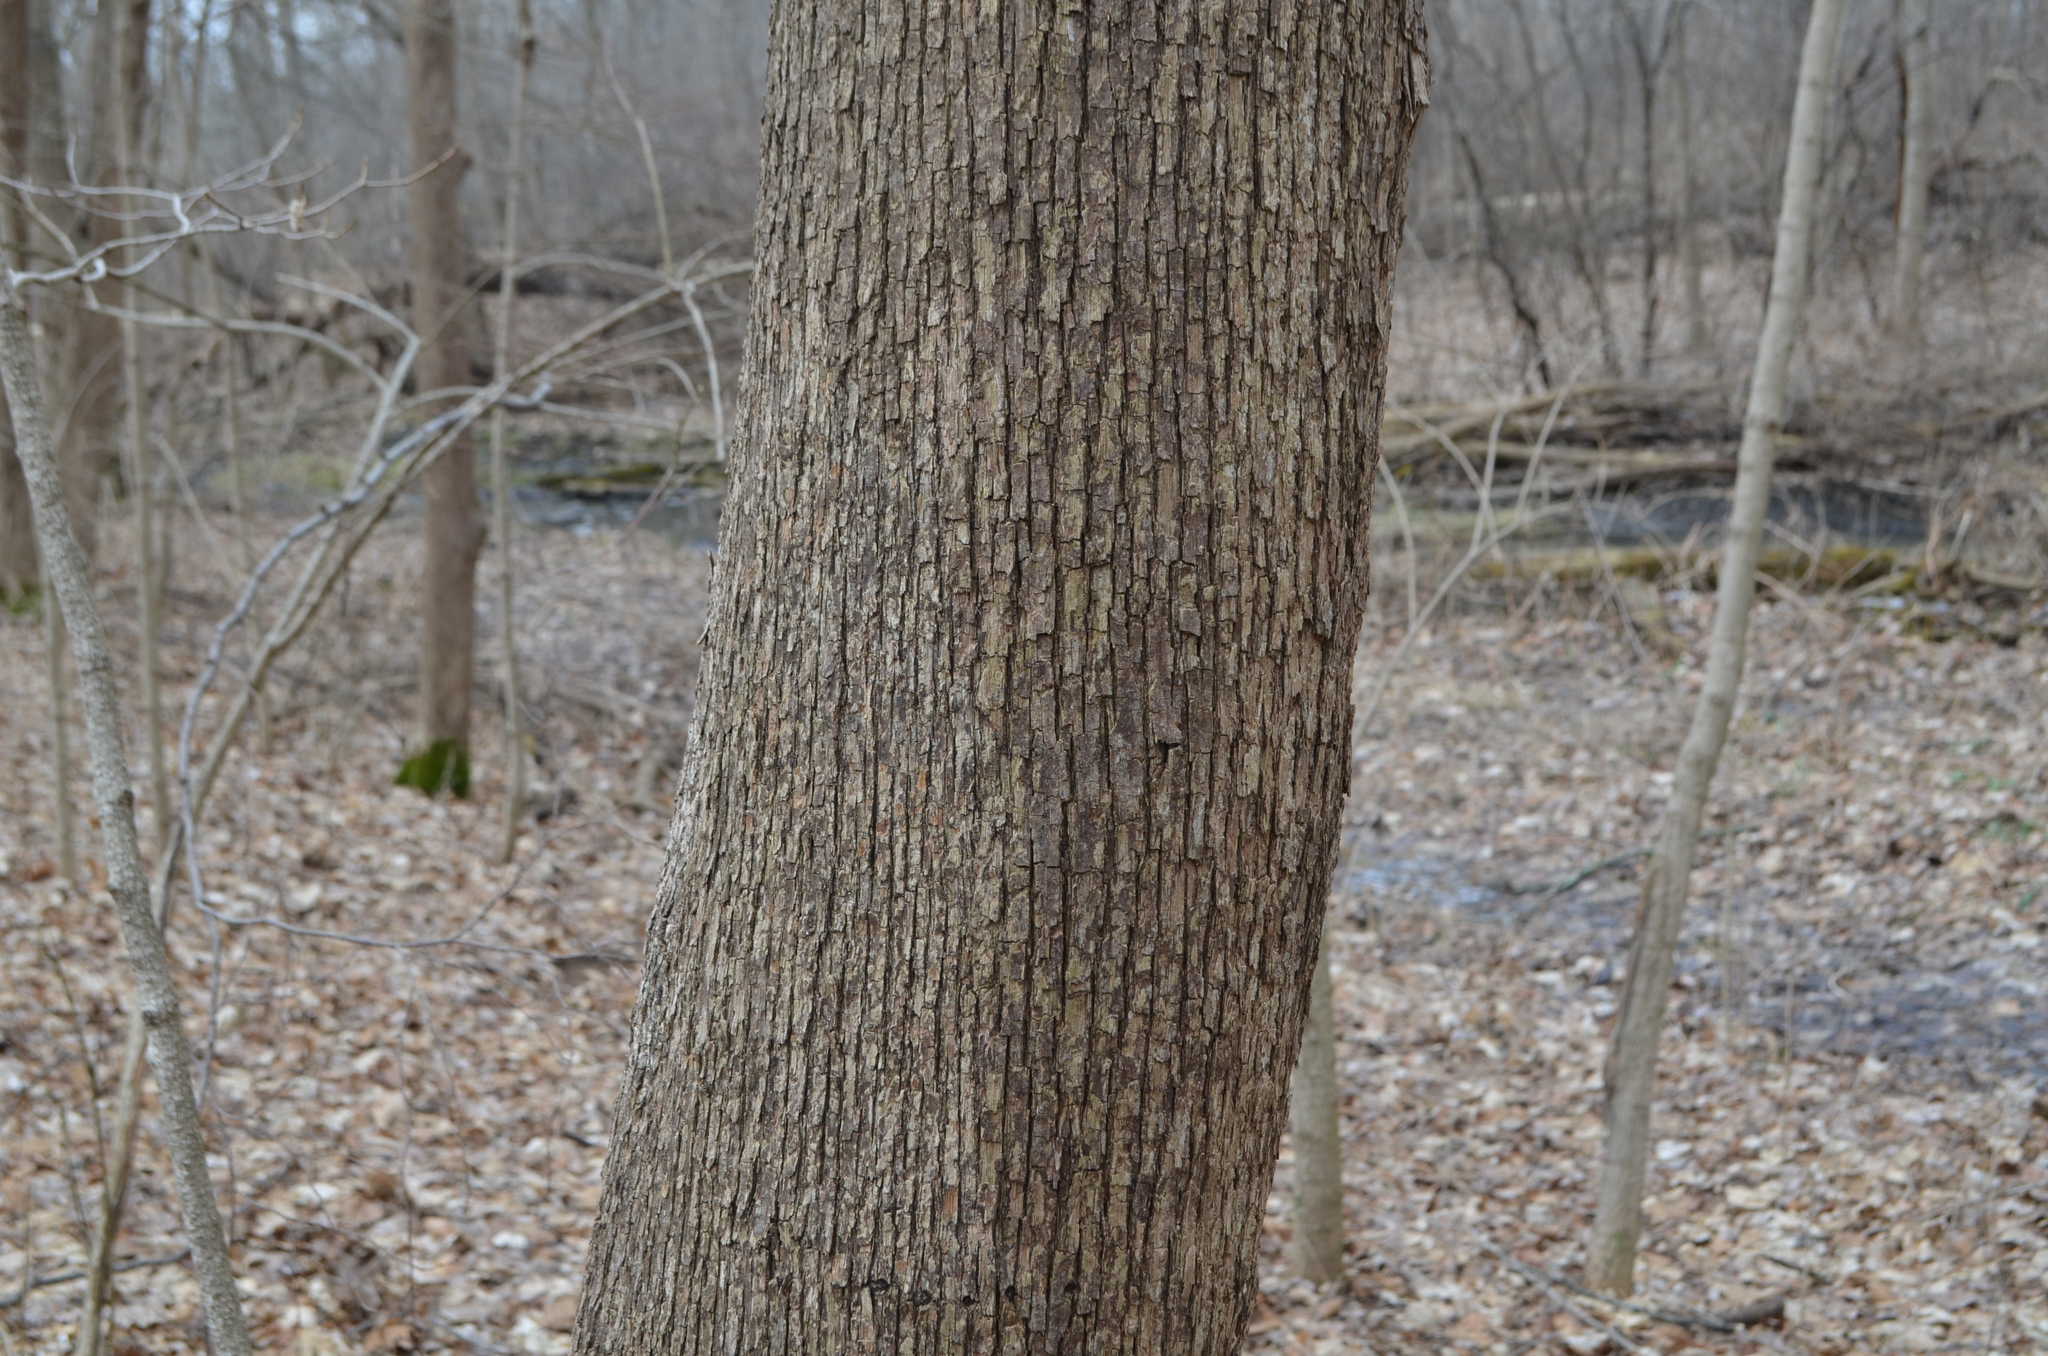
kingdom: Plantae
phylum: Tracheophyta
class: Magnoliopsida
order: Fagales
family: Betulaceae
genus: Ostrya
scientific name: Ostrya virginiana
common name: Ironwood
